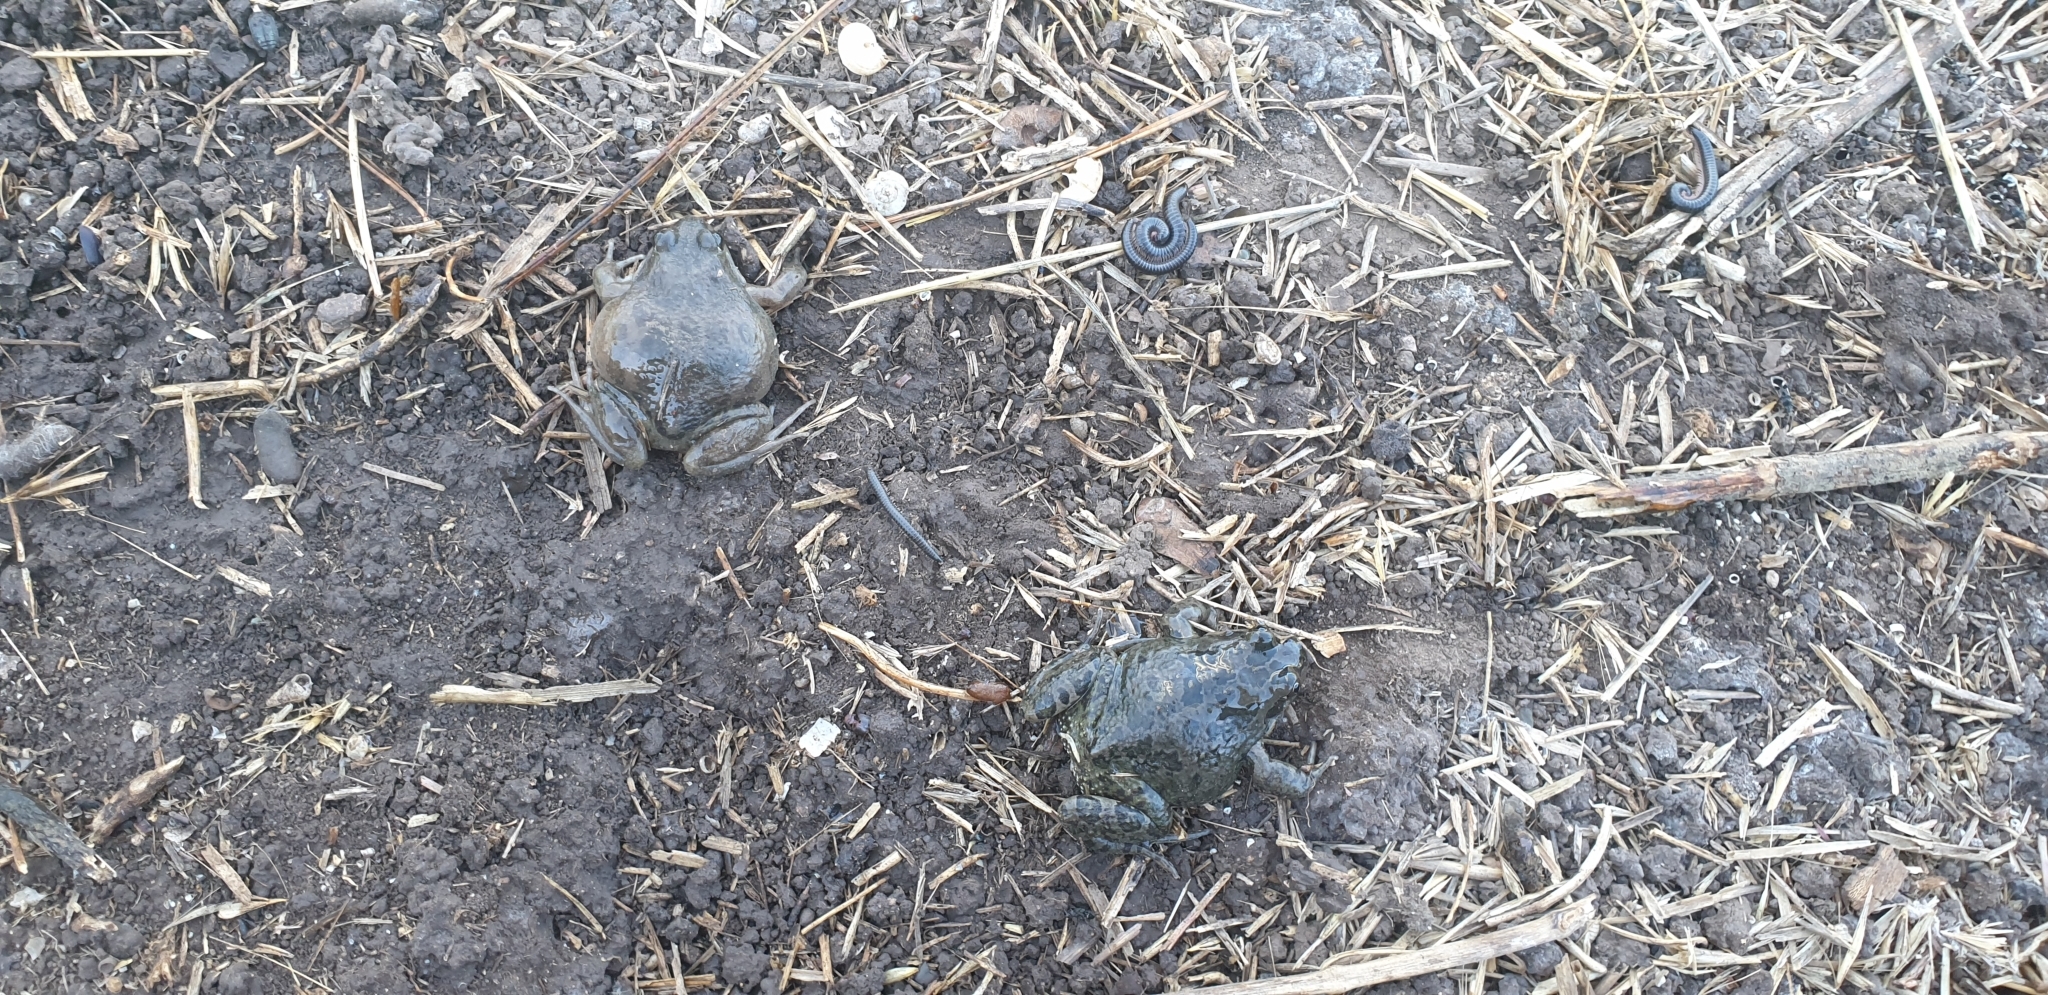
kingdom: Animalia
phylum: Chordata
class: Amphibia
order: Anura
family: Limnodynastidae
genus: Limnodynastes
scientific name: Limnodynastes tasmaniensis
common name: Spotted marsh frog
